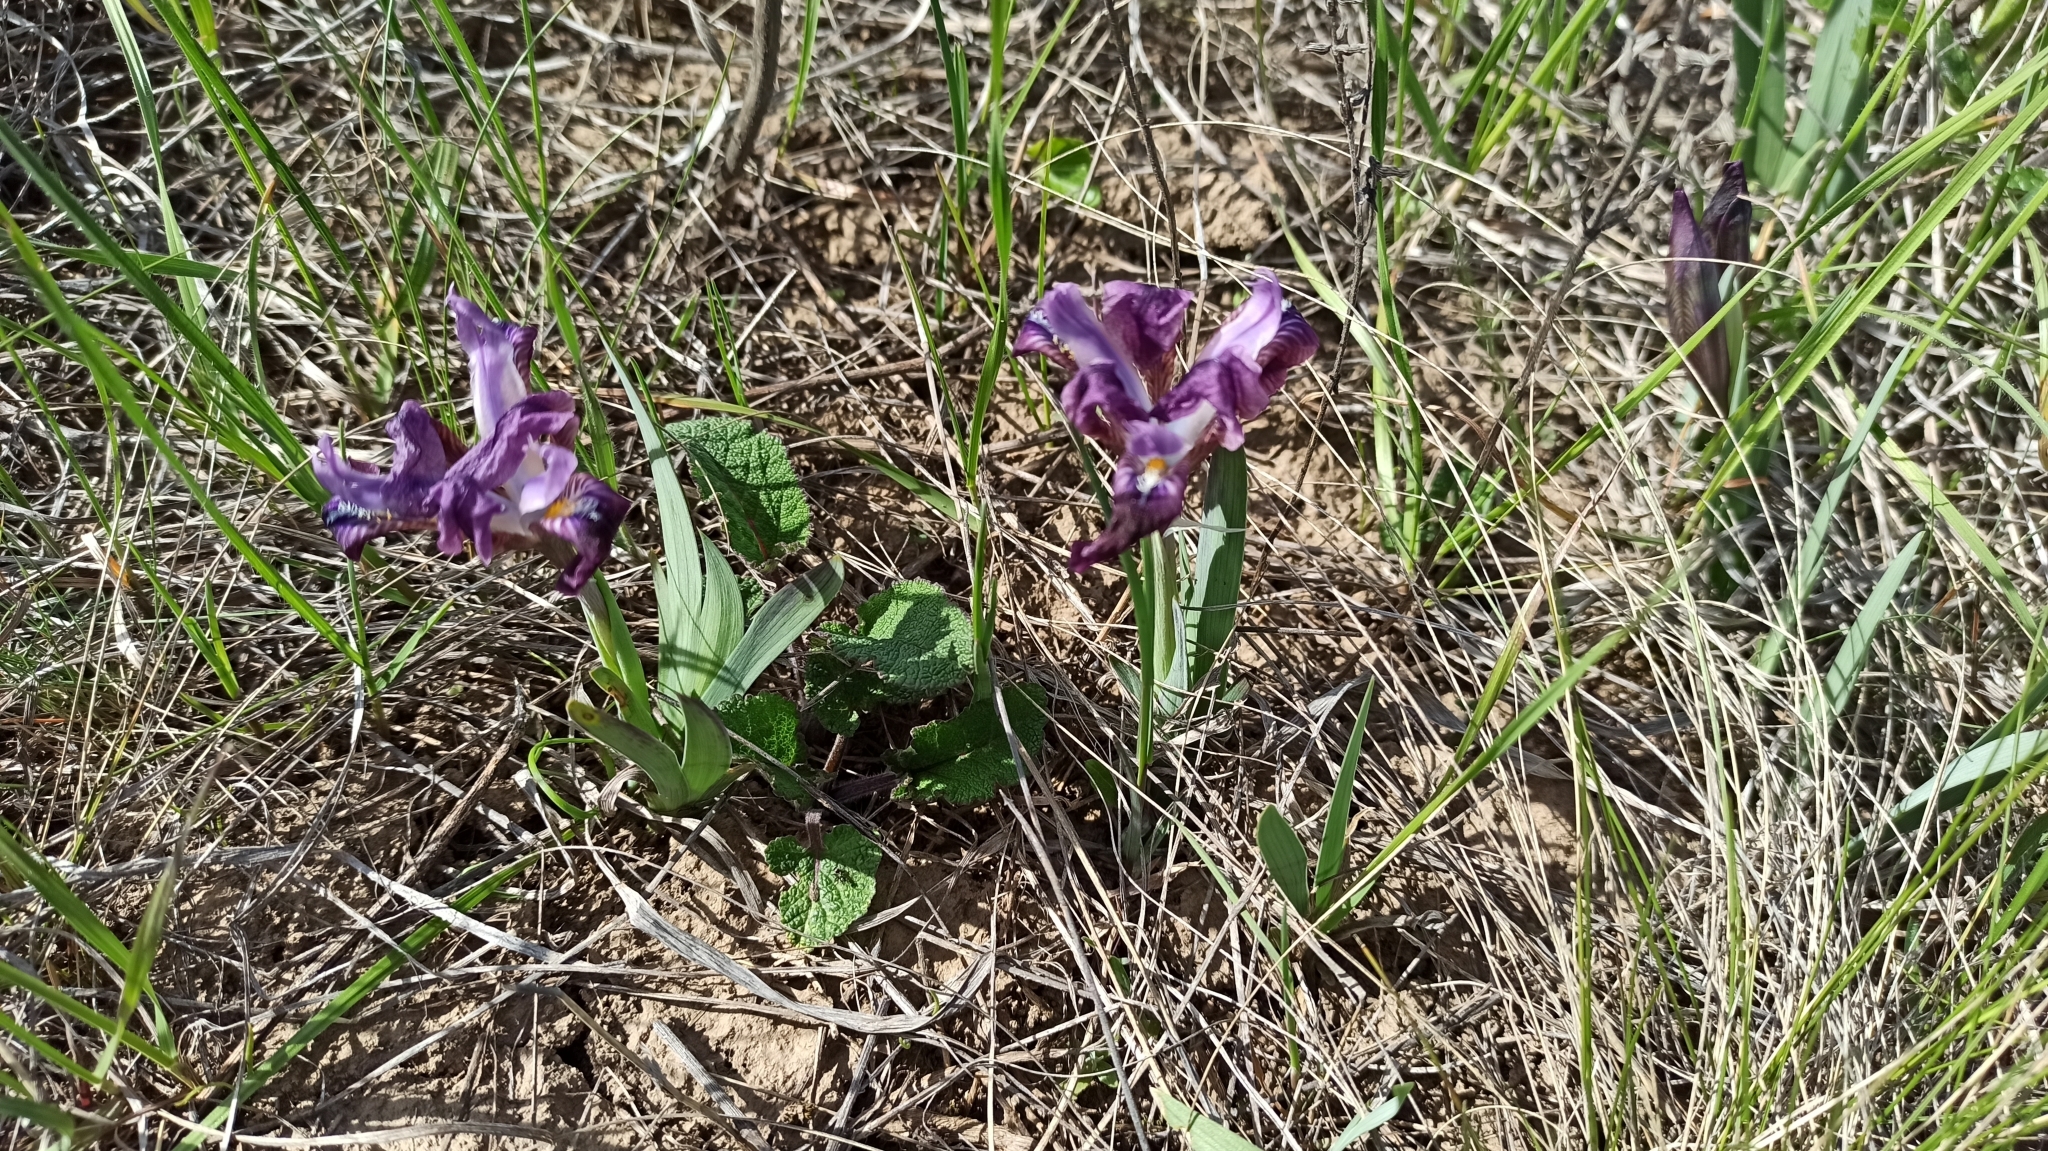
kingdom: Plantae
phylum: Tracheophyta
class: Liliopsida
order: Asparagales
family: Iridaceae
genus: Iris
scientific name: Iris pumila
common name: Dwarf iris
